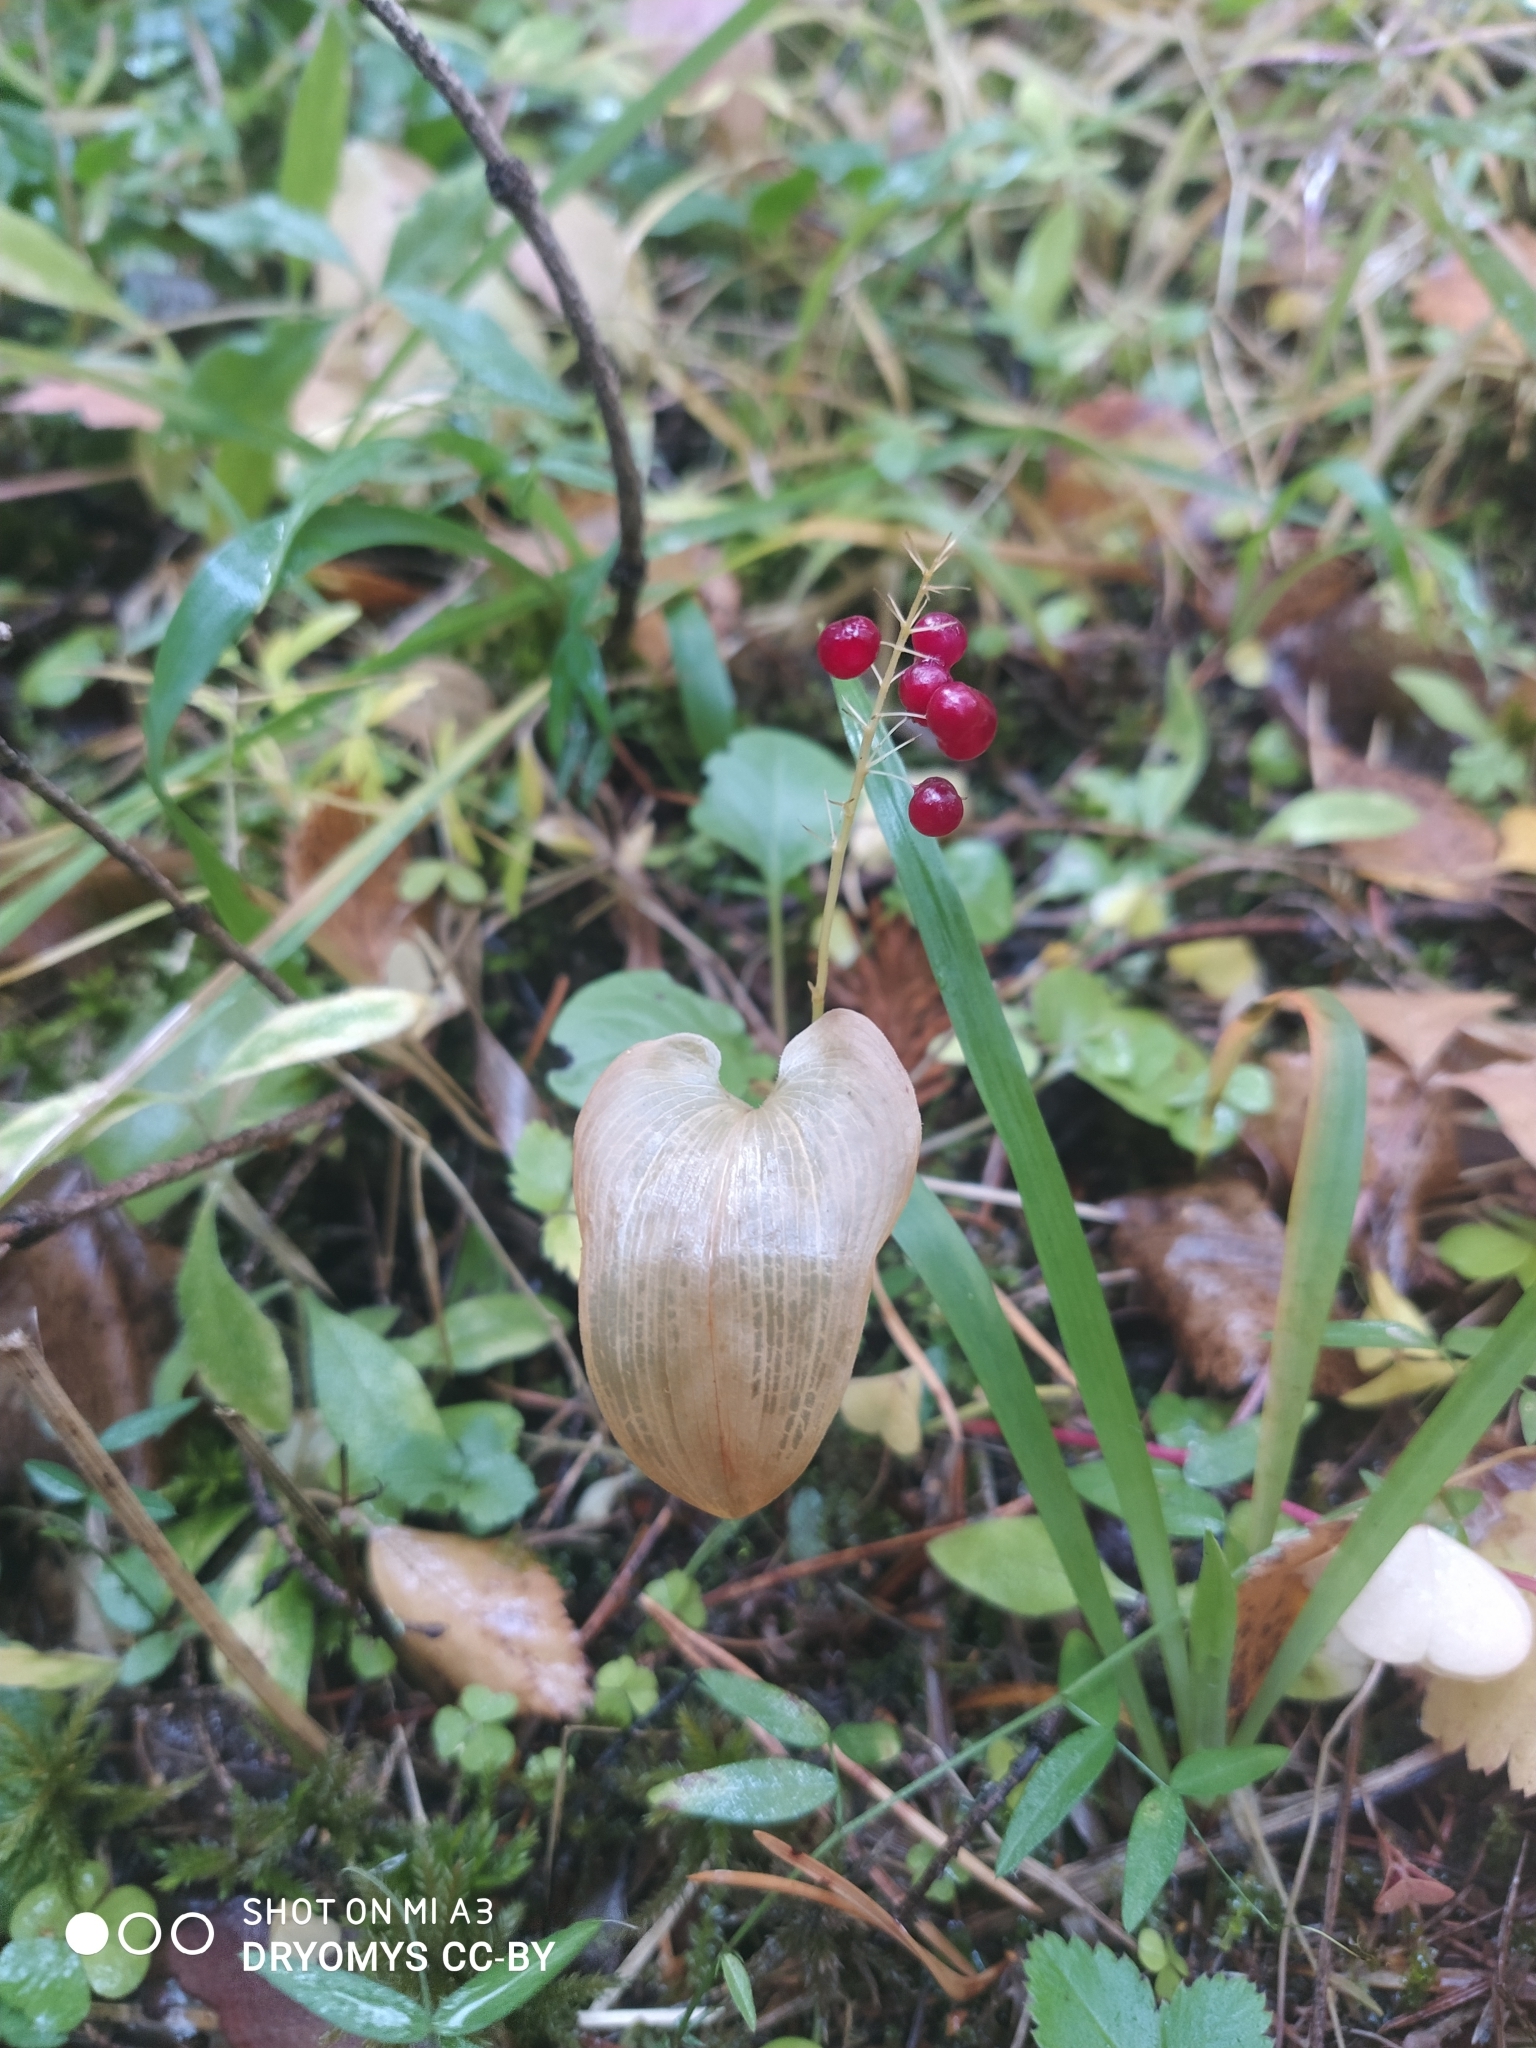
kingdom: Plantae
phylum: Tracheophyta
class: Liliopsida
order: Asparagales
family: Asparagaceae
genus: Maianthemum
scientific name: Maianthemum bifolium
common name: May lily
